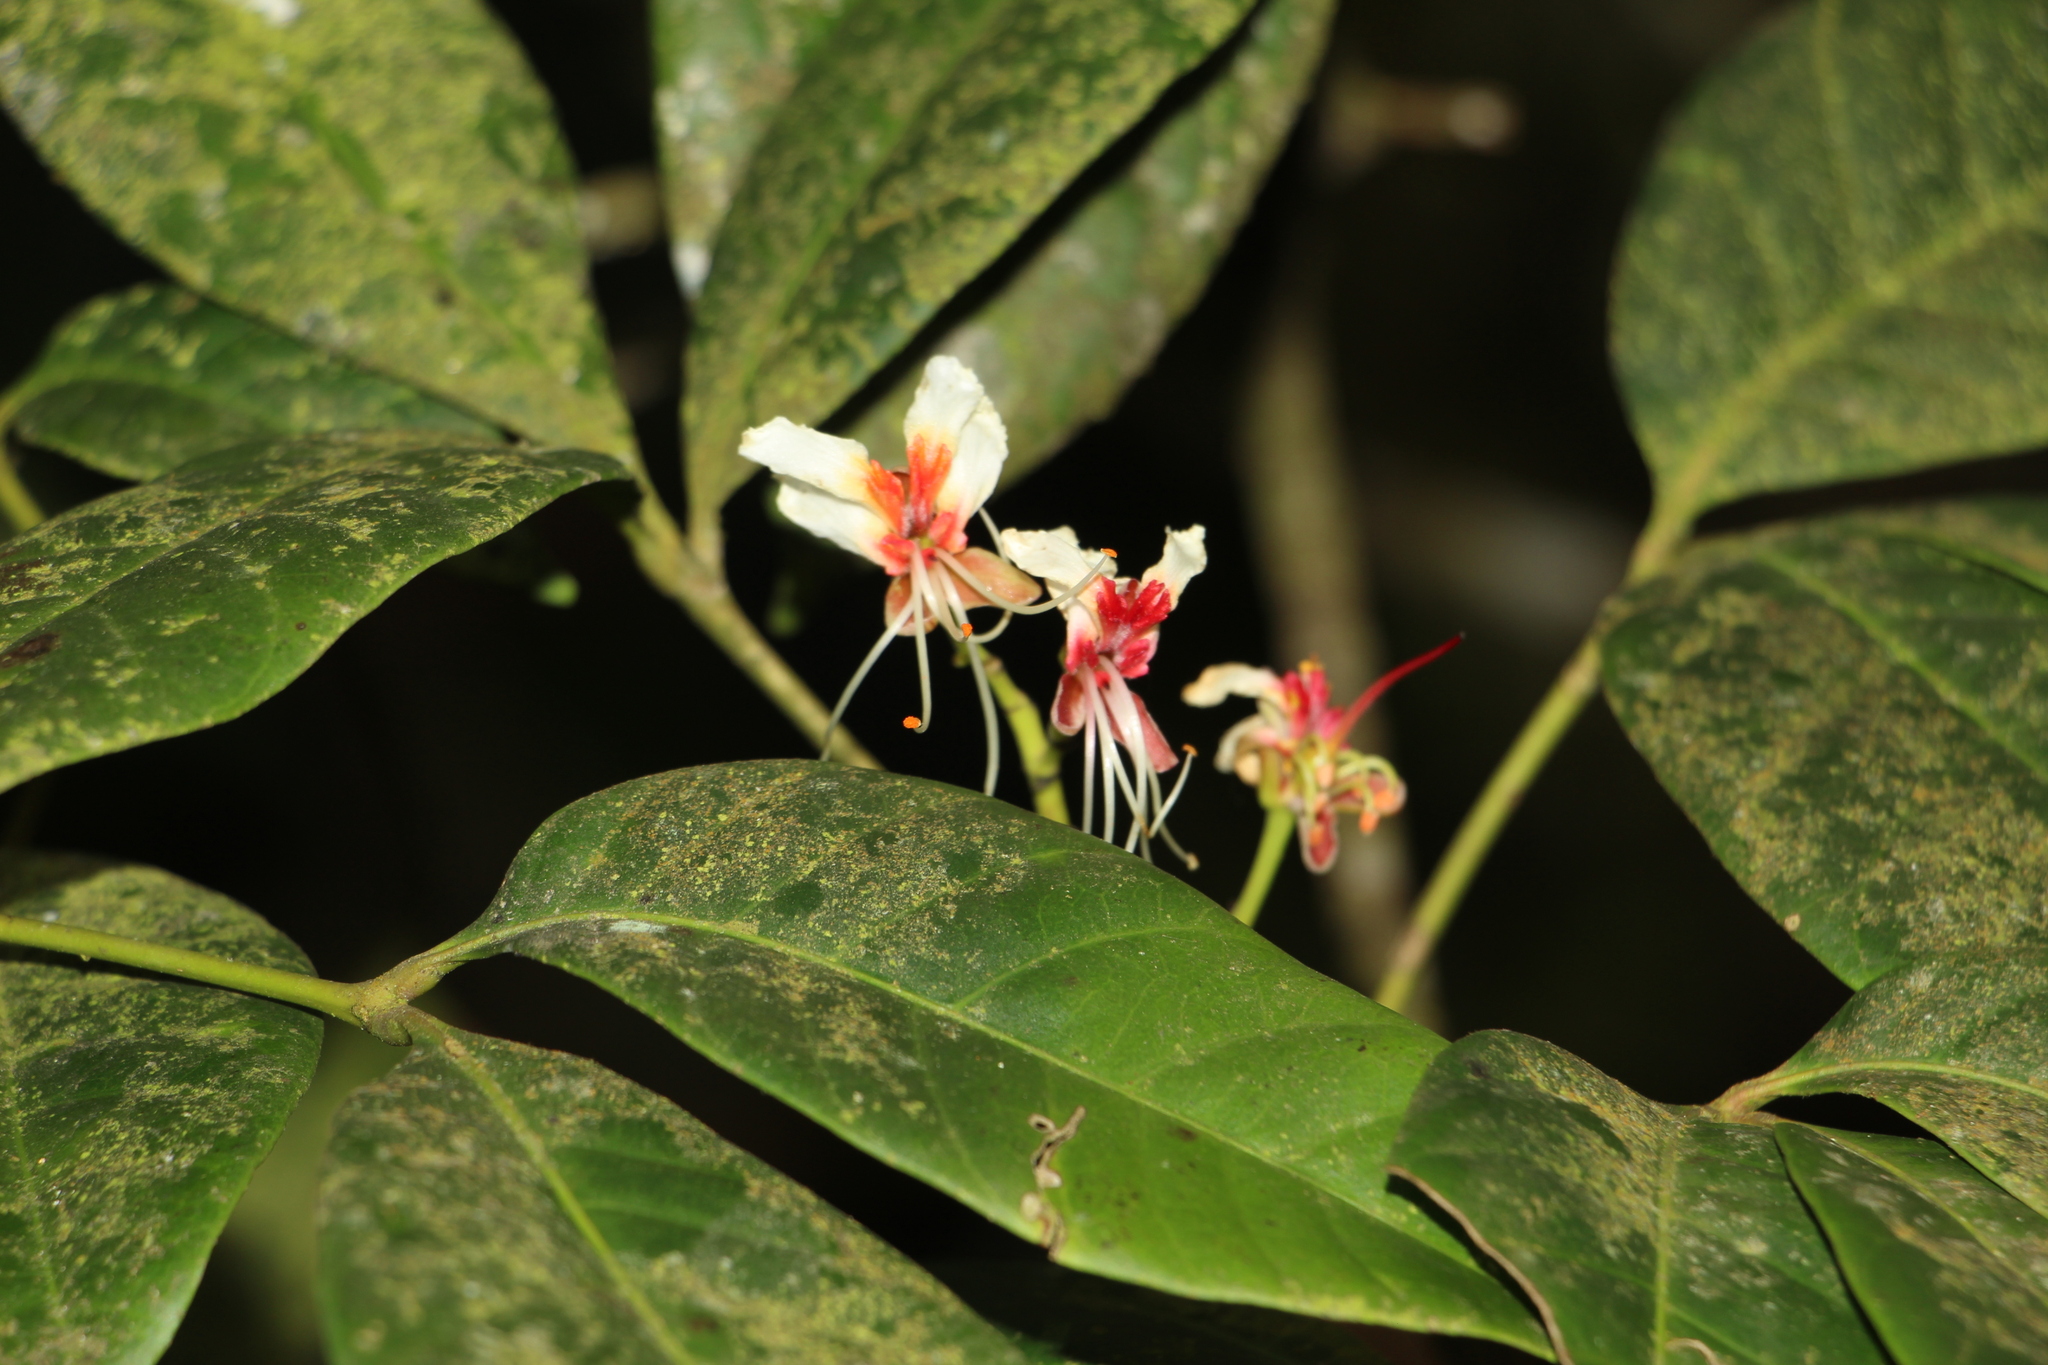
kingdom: Plantae
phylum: Tracheophyta
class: Magnoliopsida
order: Sapindales
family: Sapindaceae
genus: Billia
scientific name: Billia rosea
